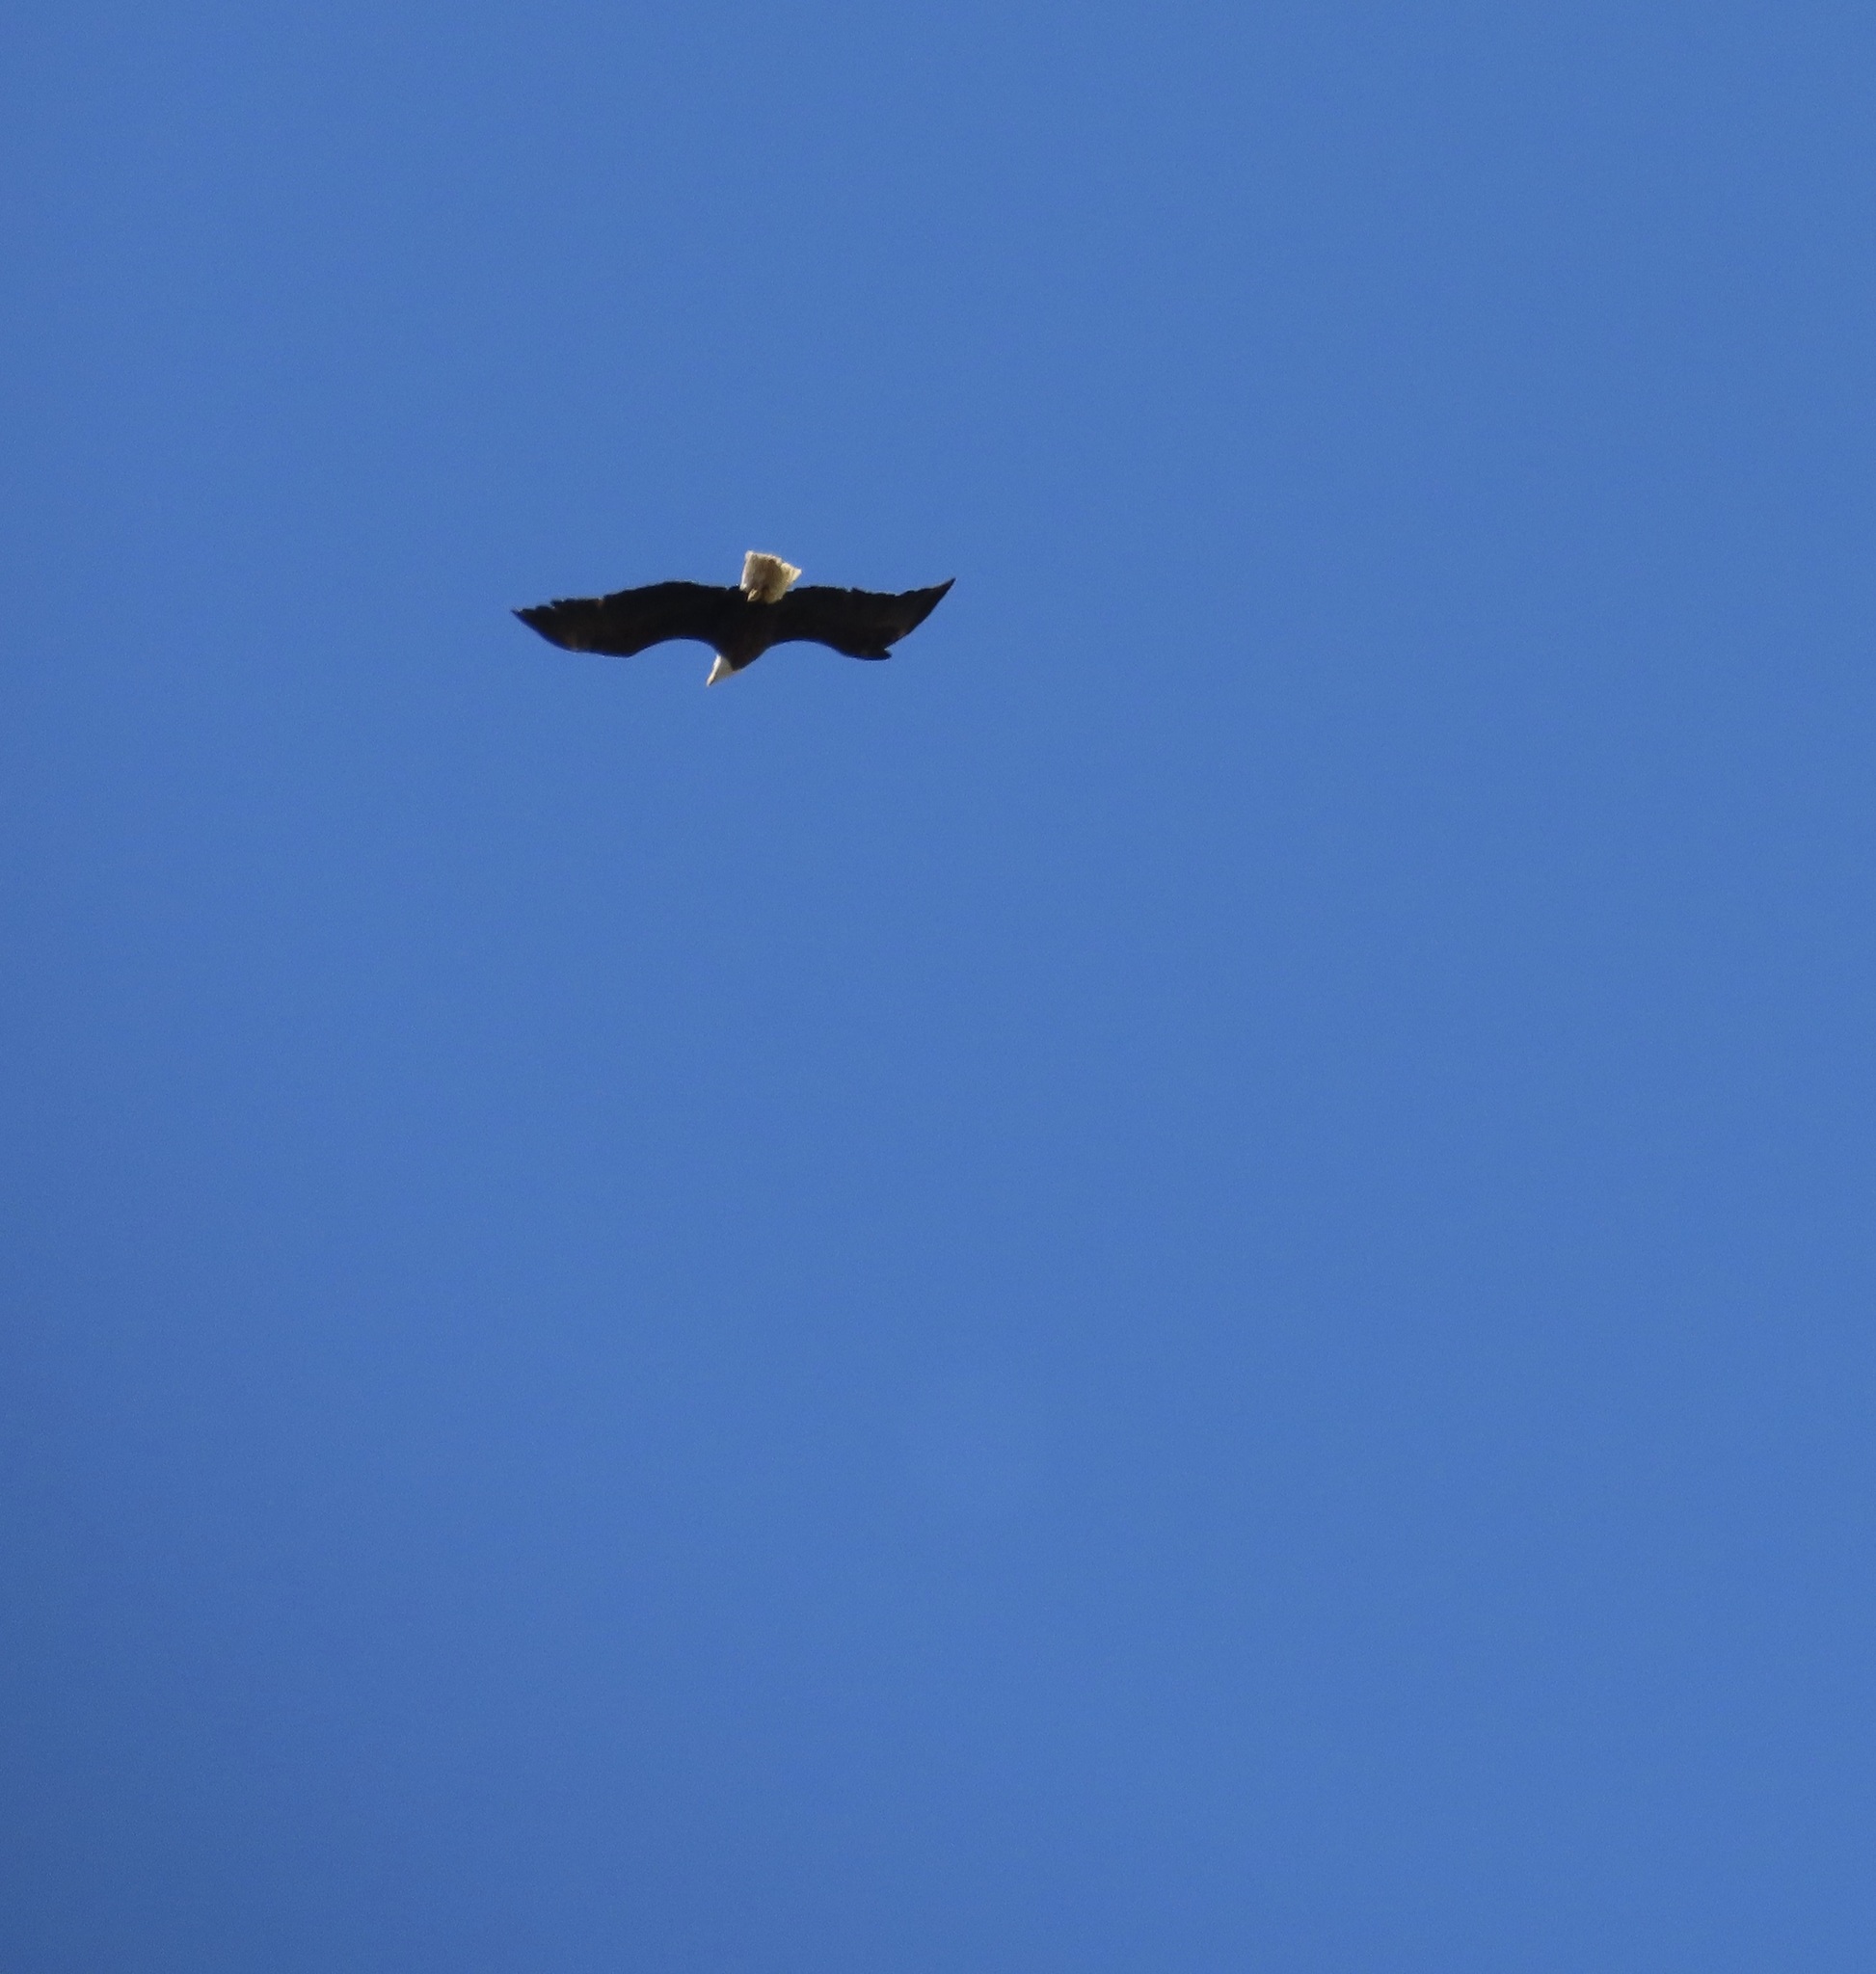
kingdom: Animalia
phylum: Chordata
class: Aves
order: Accipitriformes
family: Accipitridae
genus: Haliaeetus
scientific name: Haliaeetus leucocephalus
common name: Bald eagle
